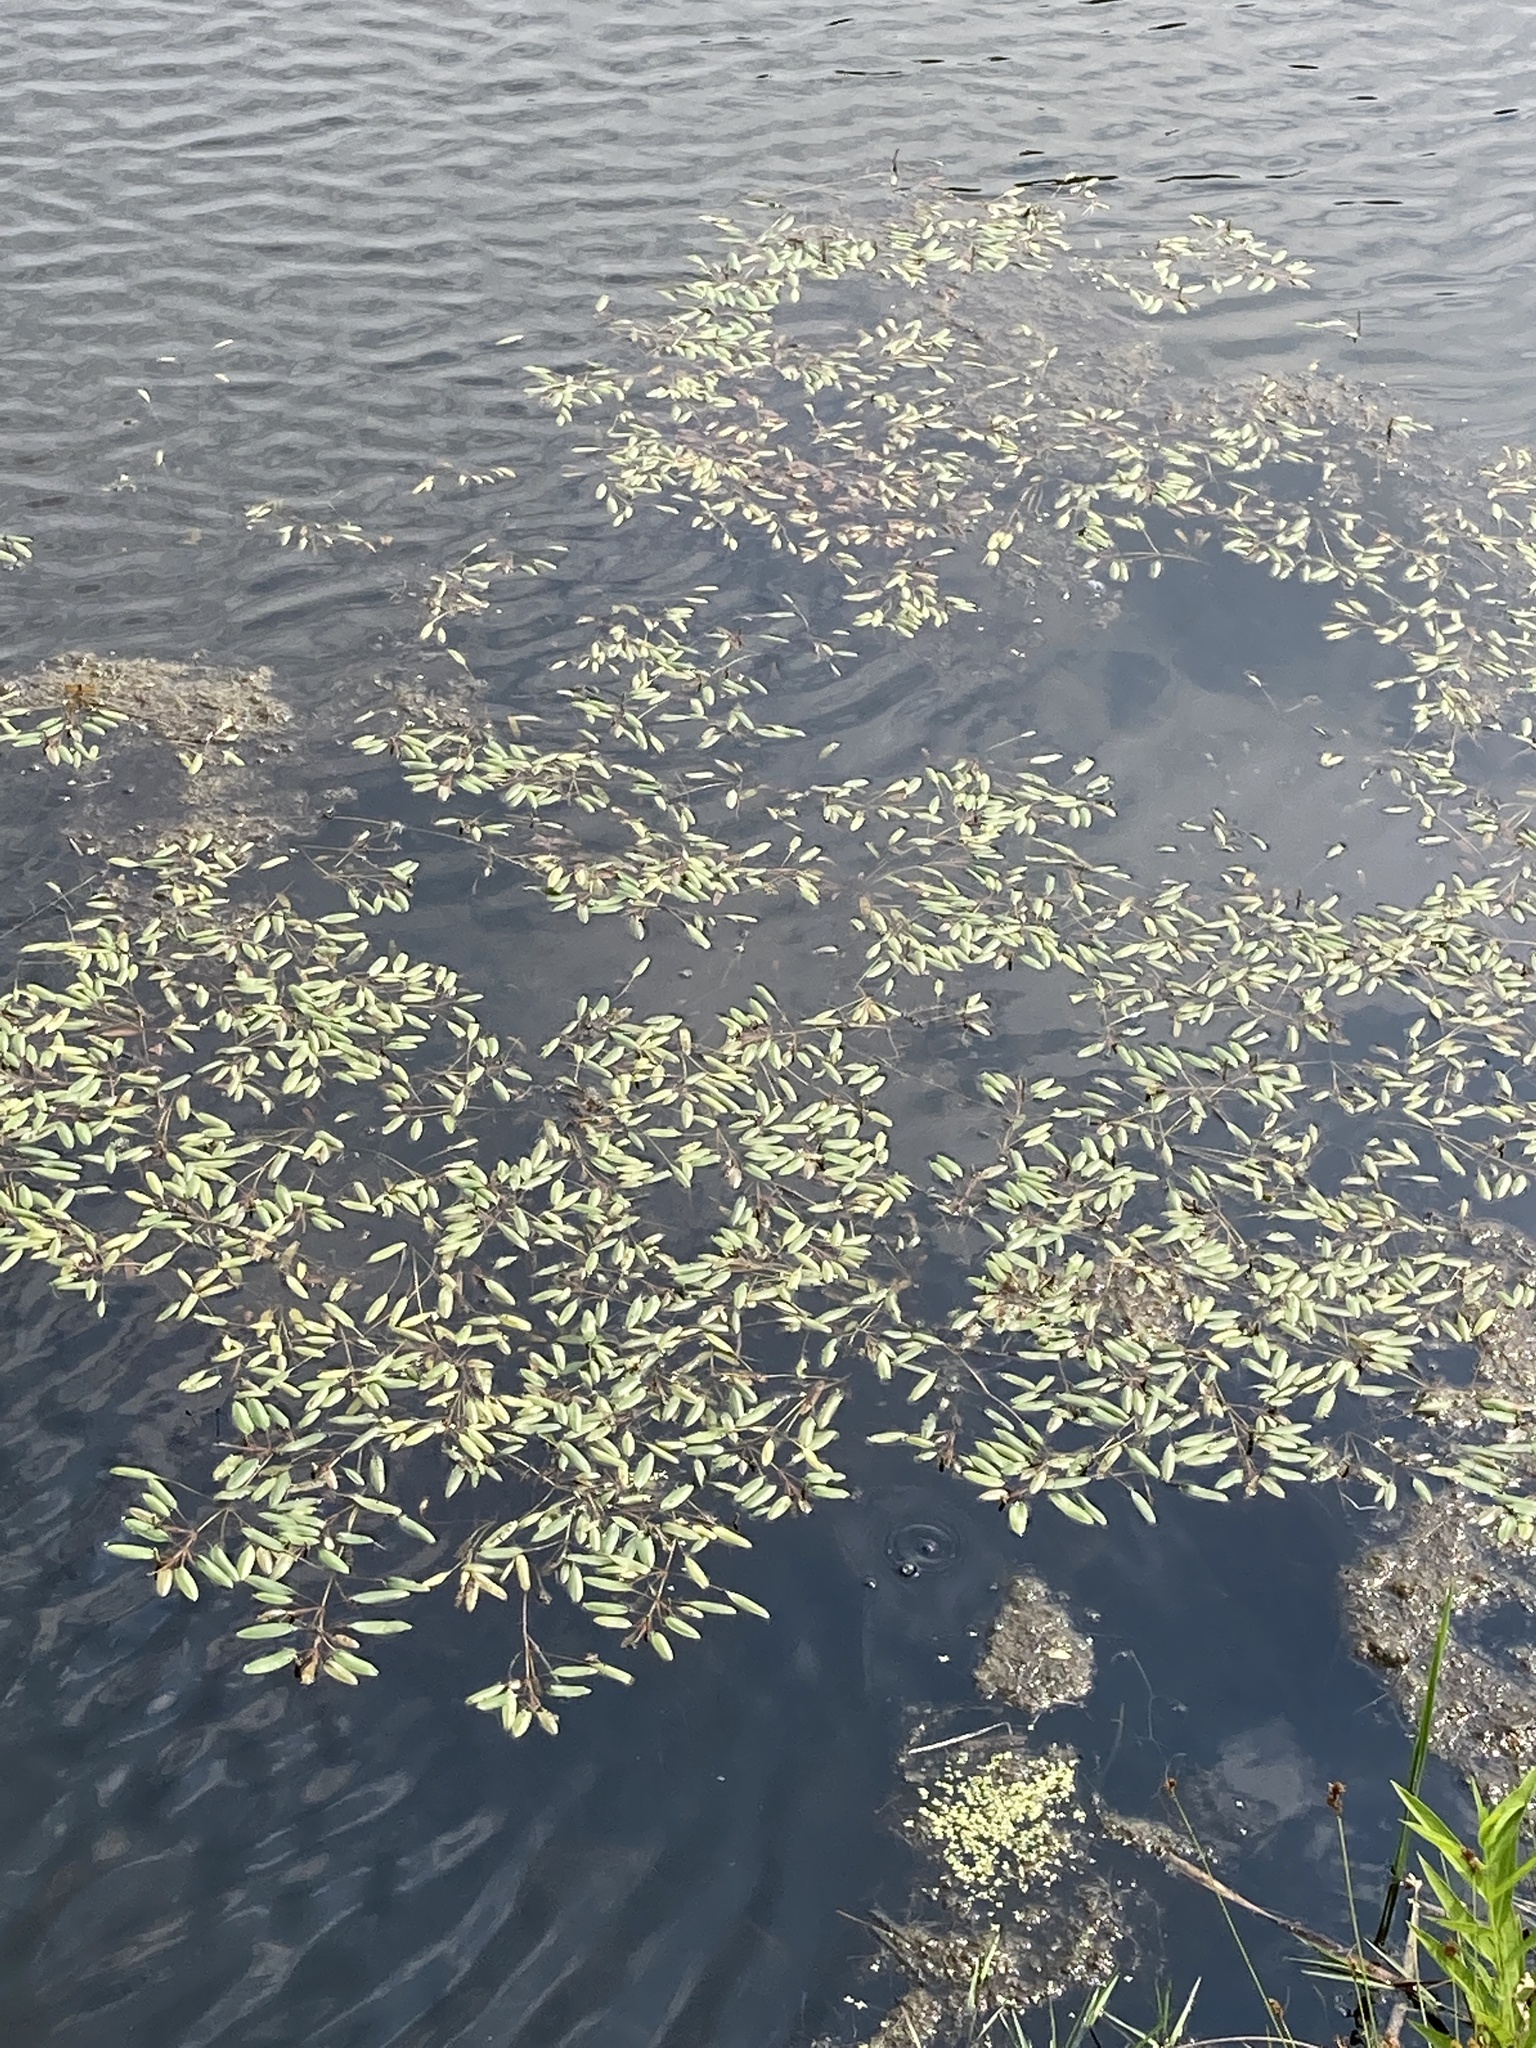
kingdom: Plantae
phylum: Tracheophyta
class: Liliopsida
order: Alismatales
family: Potamogetonaceae
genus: Potamogeton
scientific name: Potamogeton epihydrus
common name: American pondweed
